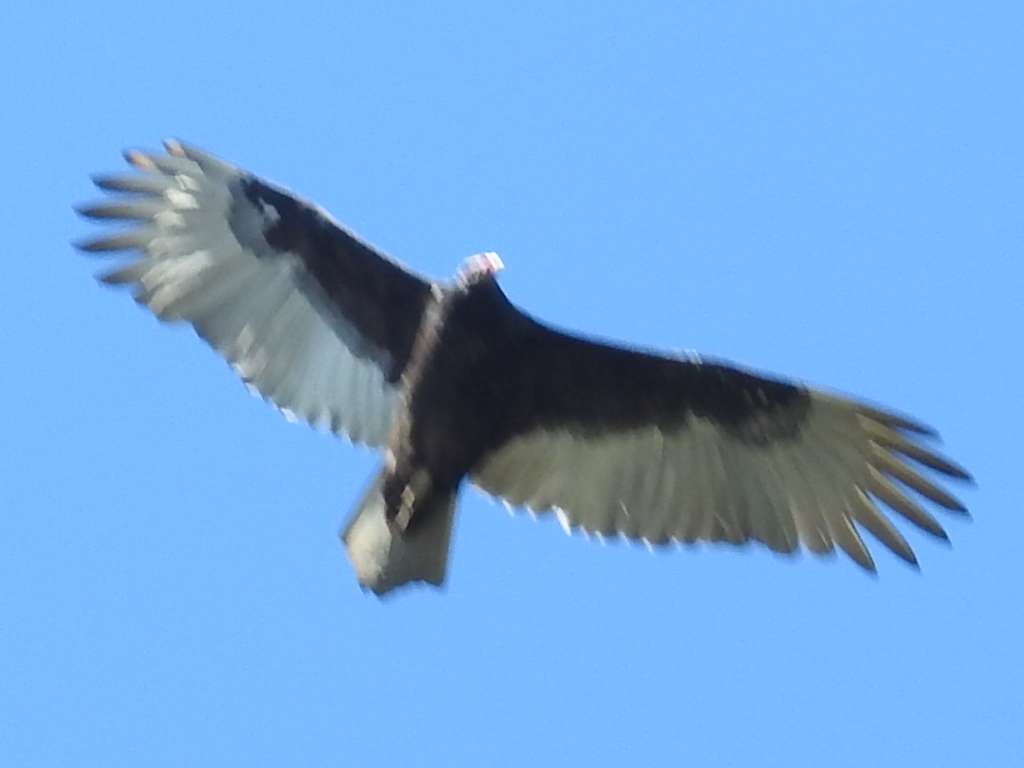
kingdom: Animalia
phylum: Chordata
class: Aves
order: Accipitriformes
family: Cathartidae
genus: Cathartes
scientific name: Cathartes aura
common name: Turkey vulture
